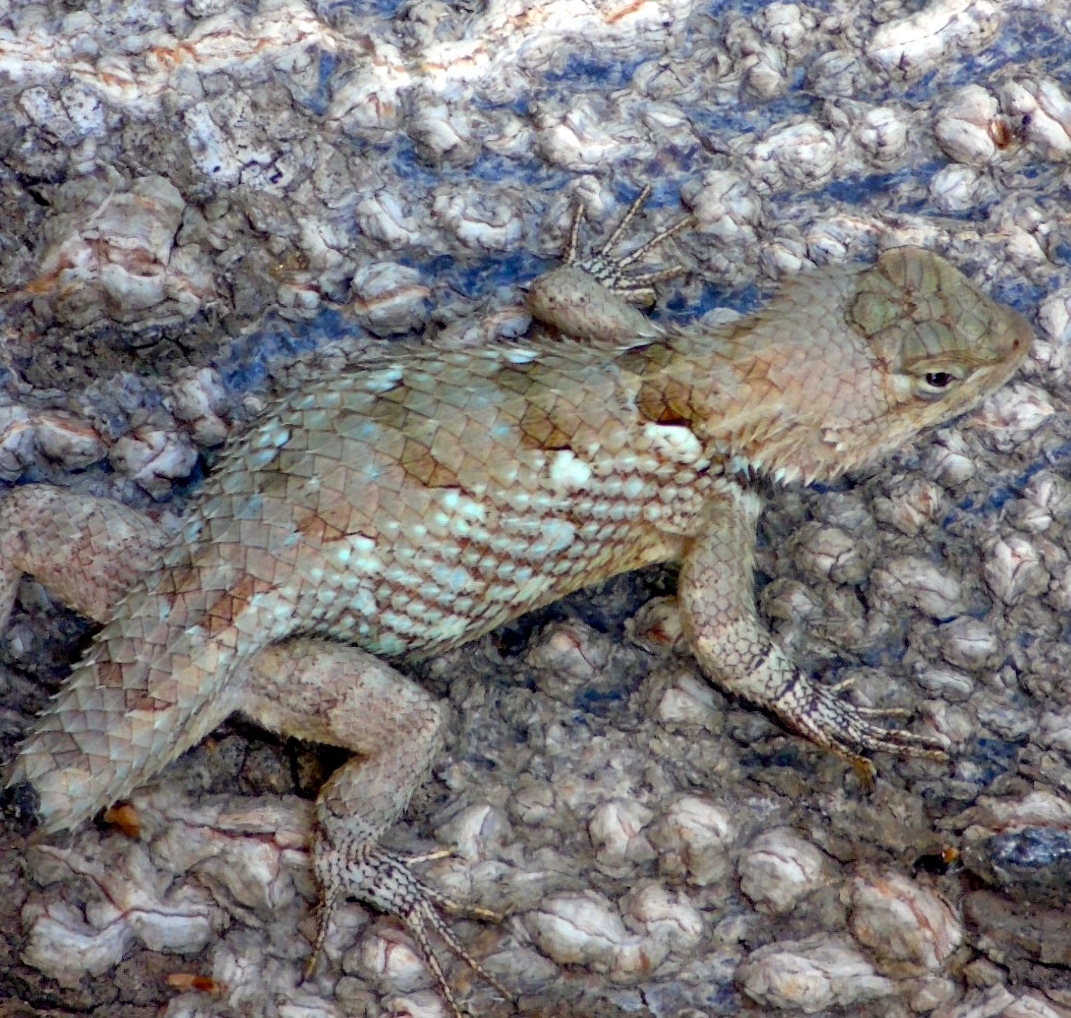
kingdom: Animalia
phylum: Chordata
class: Squamata
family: Phrynosomatidae
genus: Sceloporus
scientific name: Sceloporus clarkii
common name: Clark's spiny lizard
